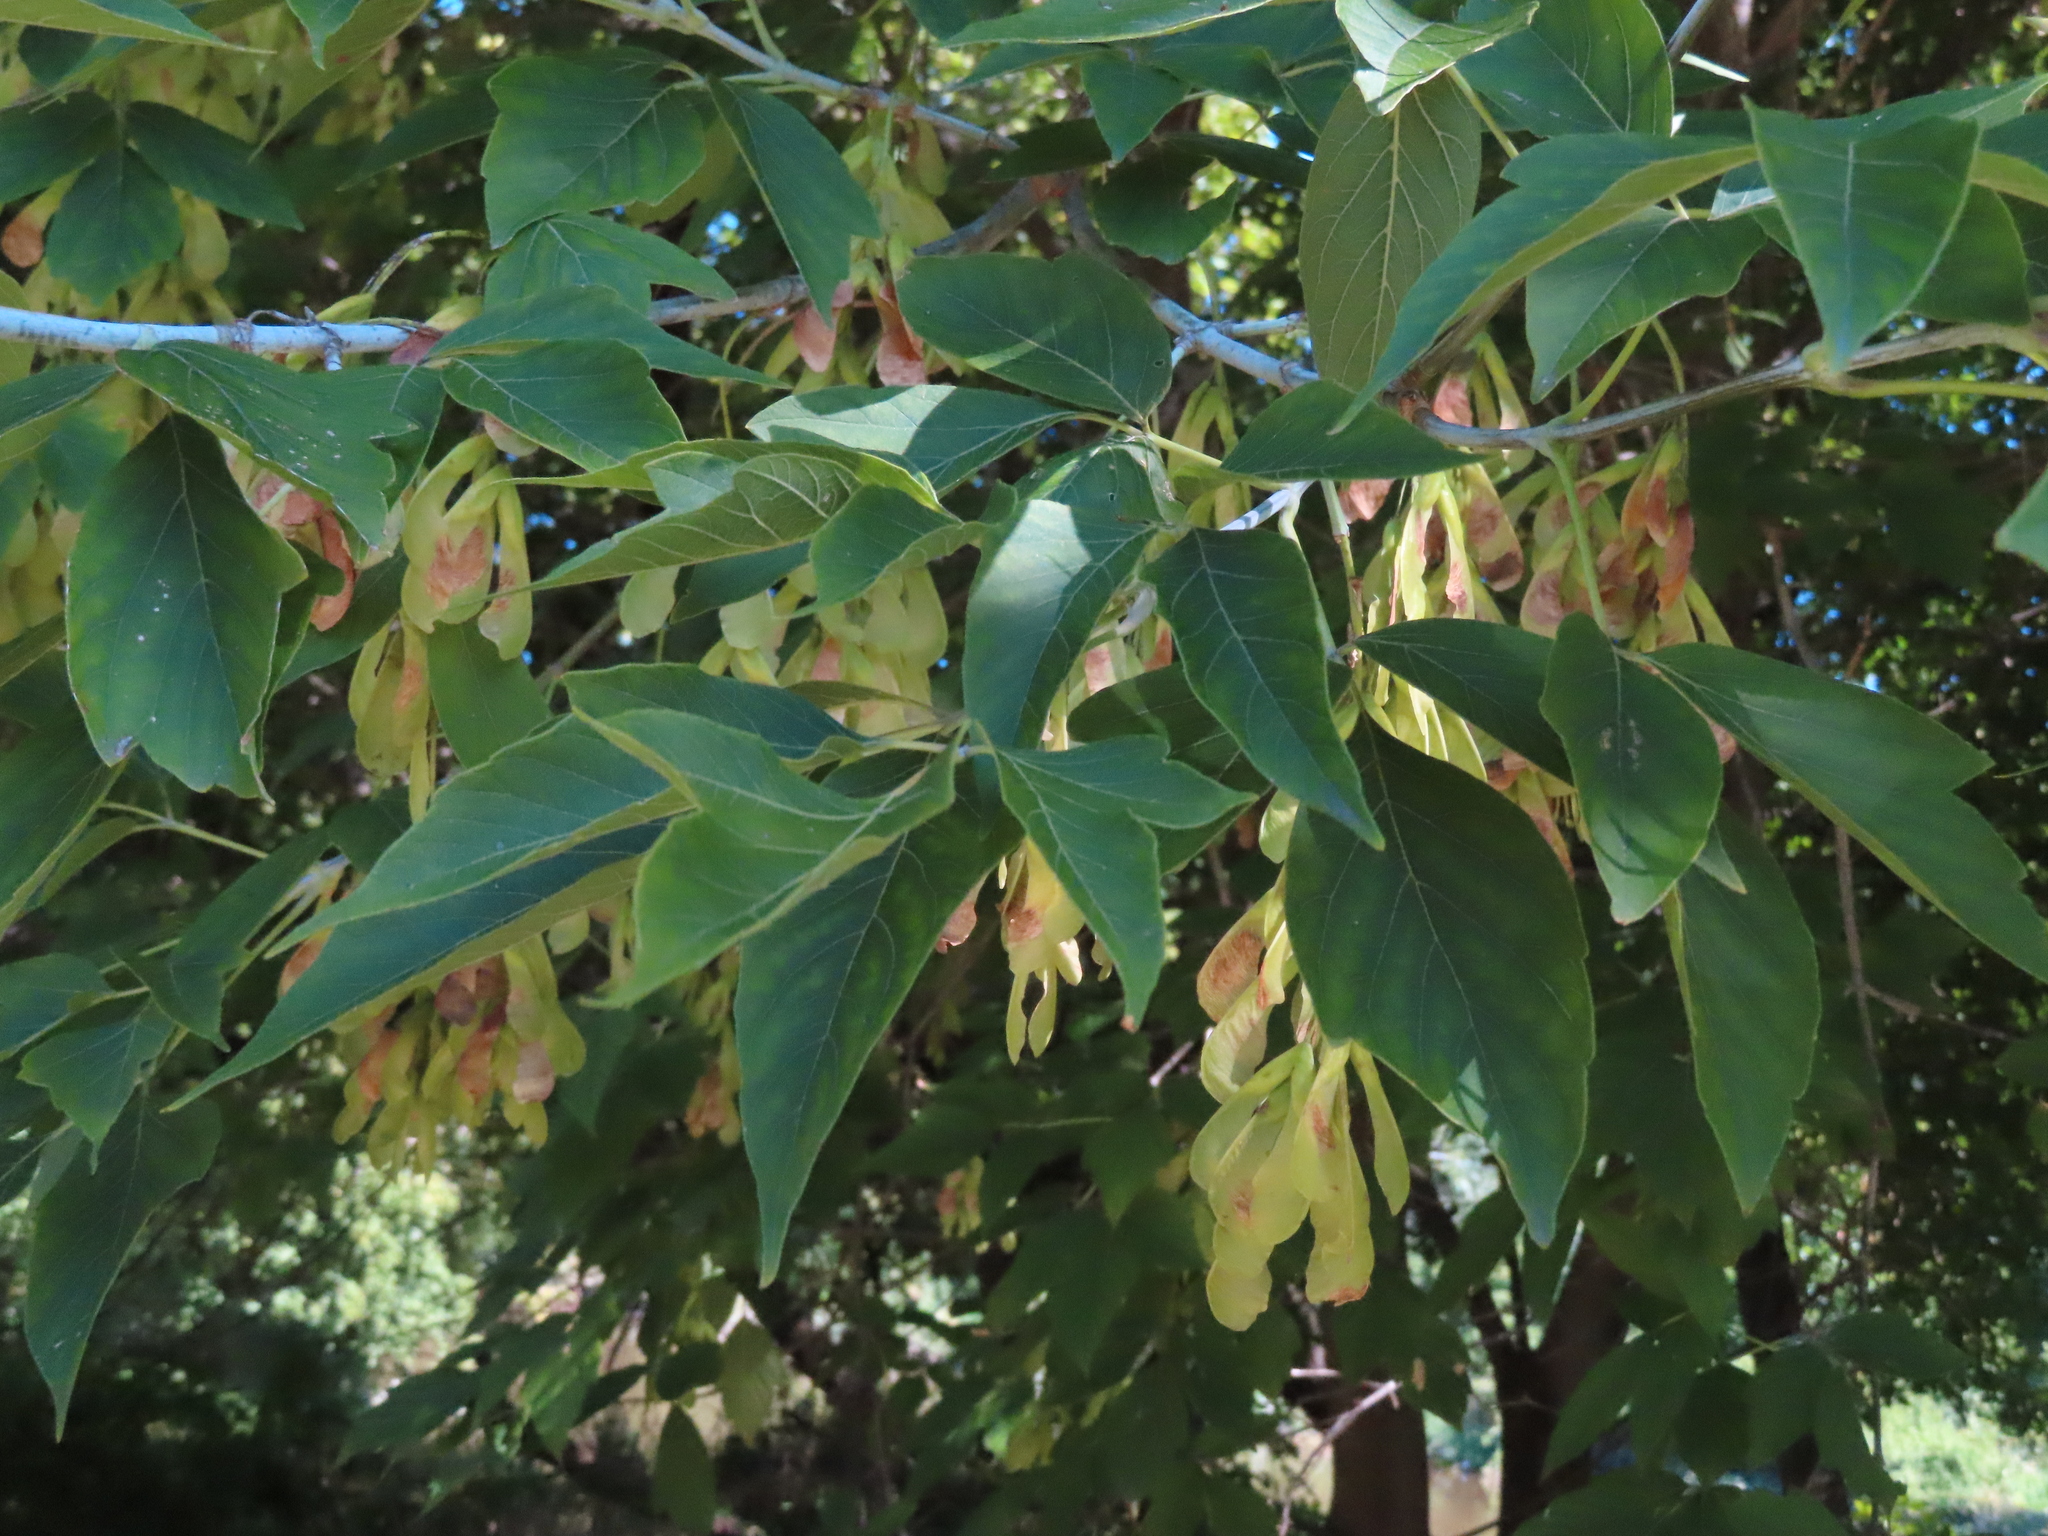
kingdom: Plantae
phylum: Tracheophyta
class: Magnoliopsida
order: Sapindales
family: Sapindaceae
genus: Acer
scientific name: Acer negundo
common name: Ashleaf maple
